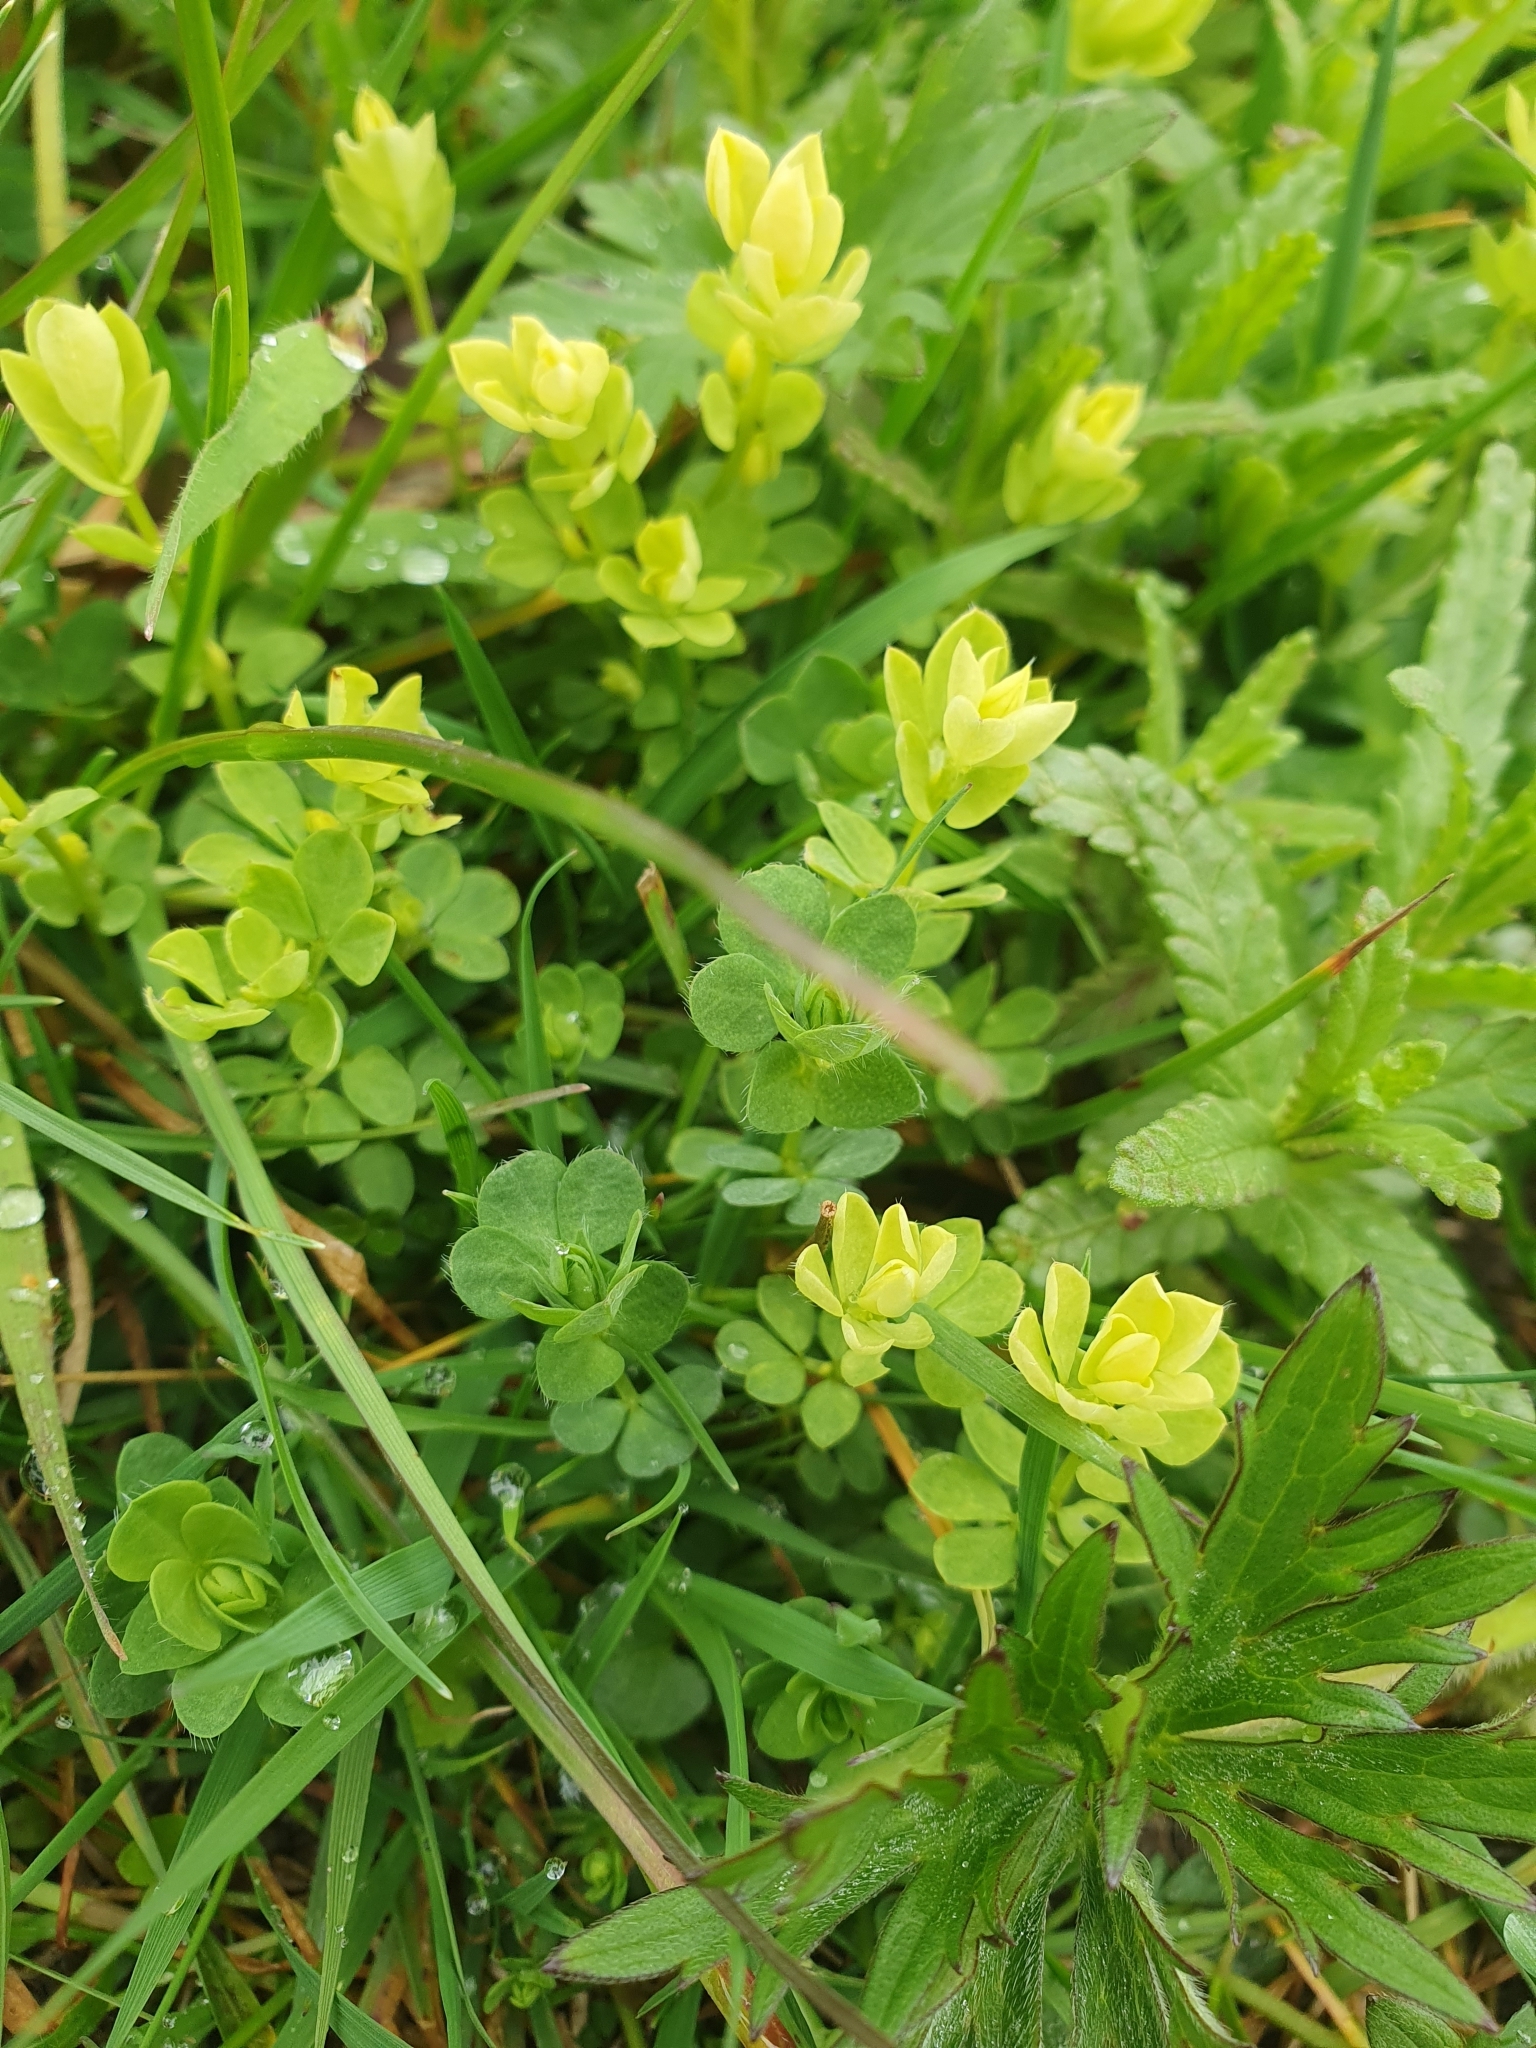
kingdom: Plantae
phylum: Tracheophyta
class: Magnoliopsida
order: Fabales
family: Fabaceae
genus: Lotus
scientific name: Lotus corniculatus
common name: Common bird's-foot-trefoil
